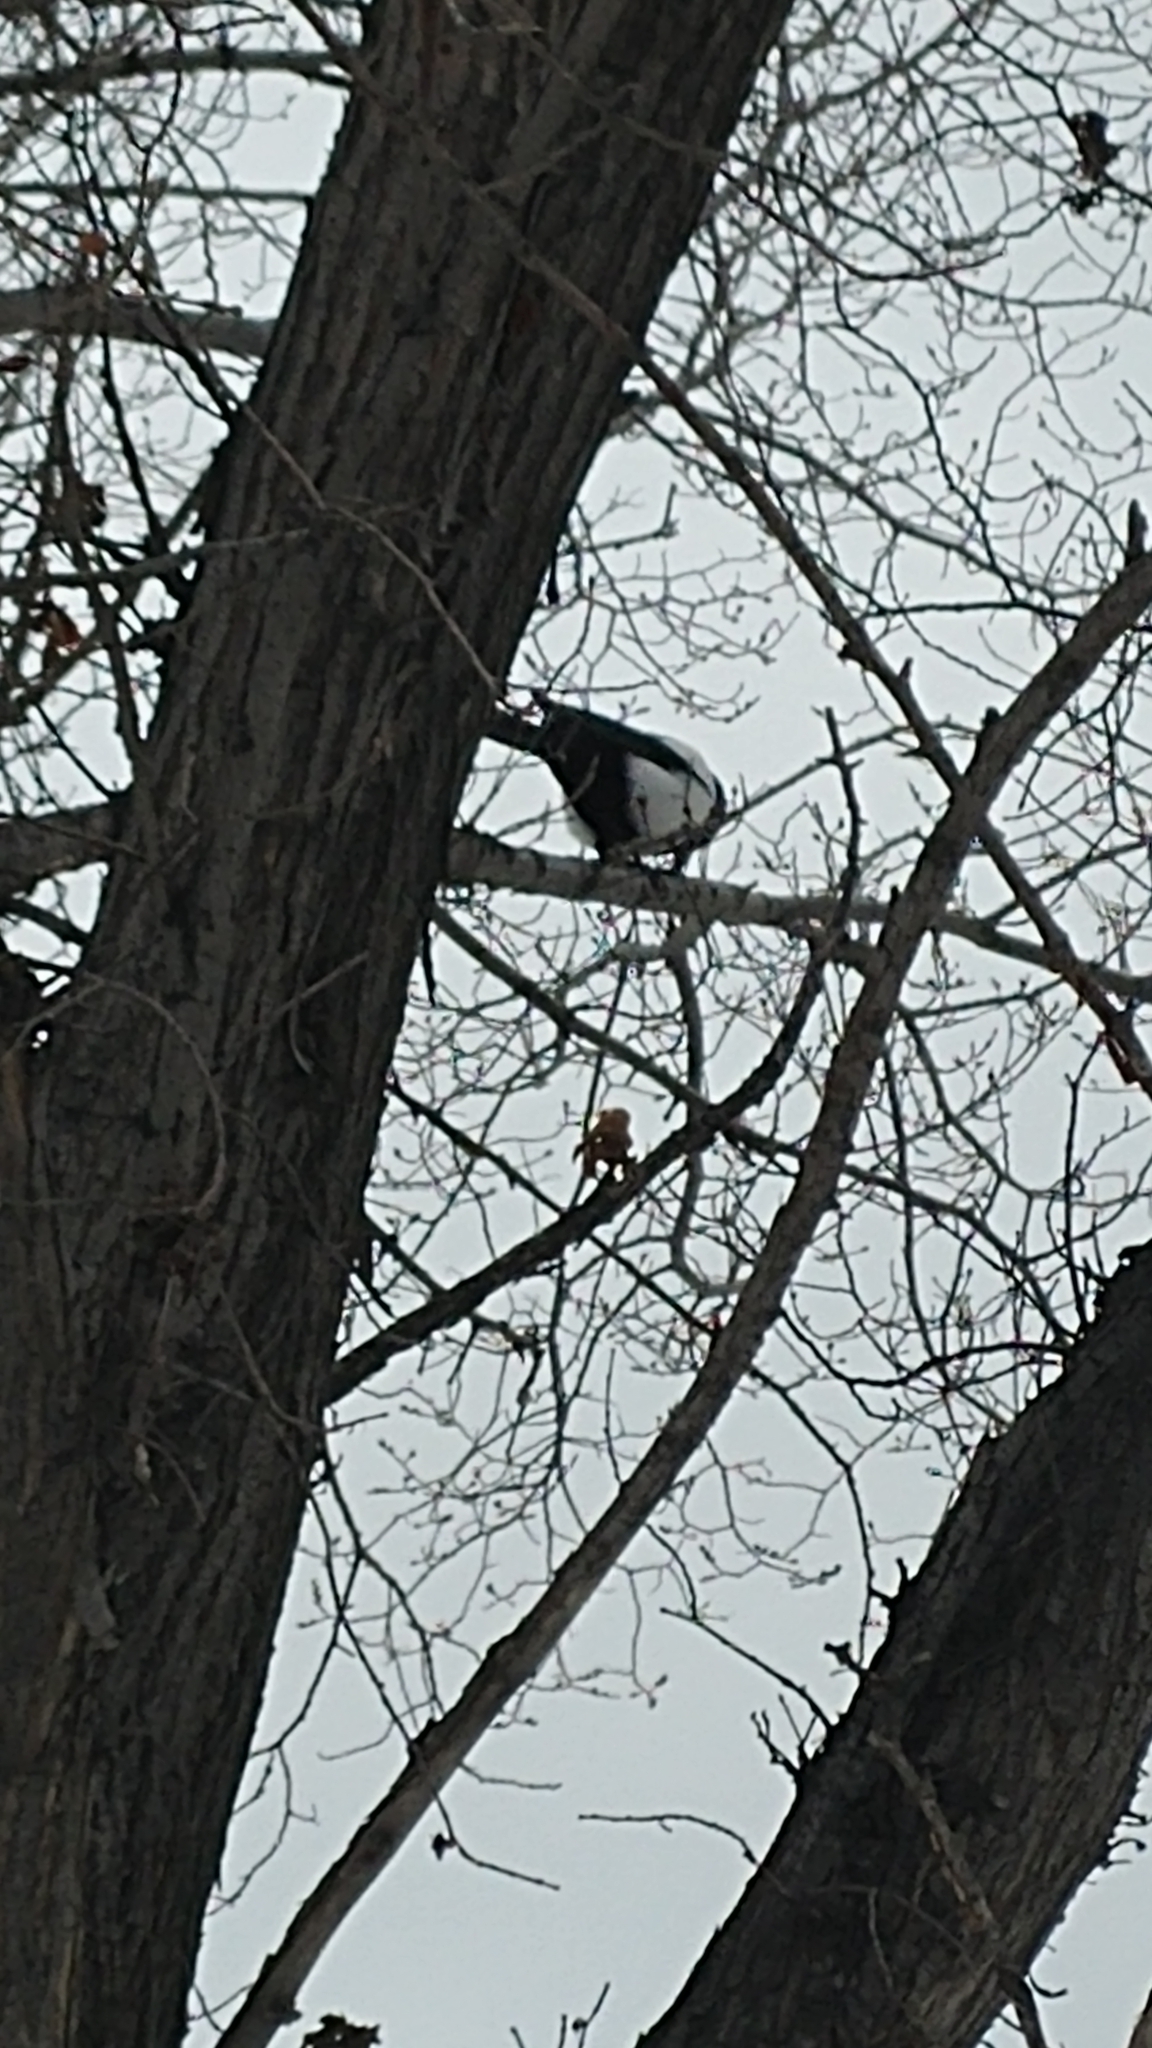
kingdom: Animalia
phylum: Chordata
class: Aves
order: Passeriformes
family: Corvidae
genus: Pica
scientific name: Pica hudsonia
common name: Black-billed magpie
